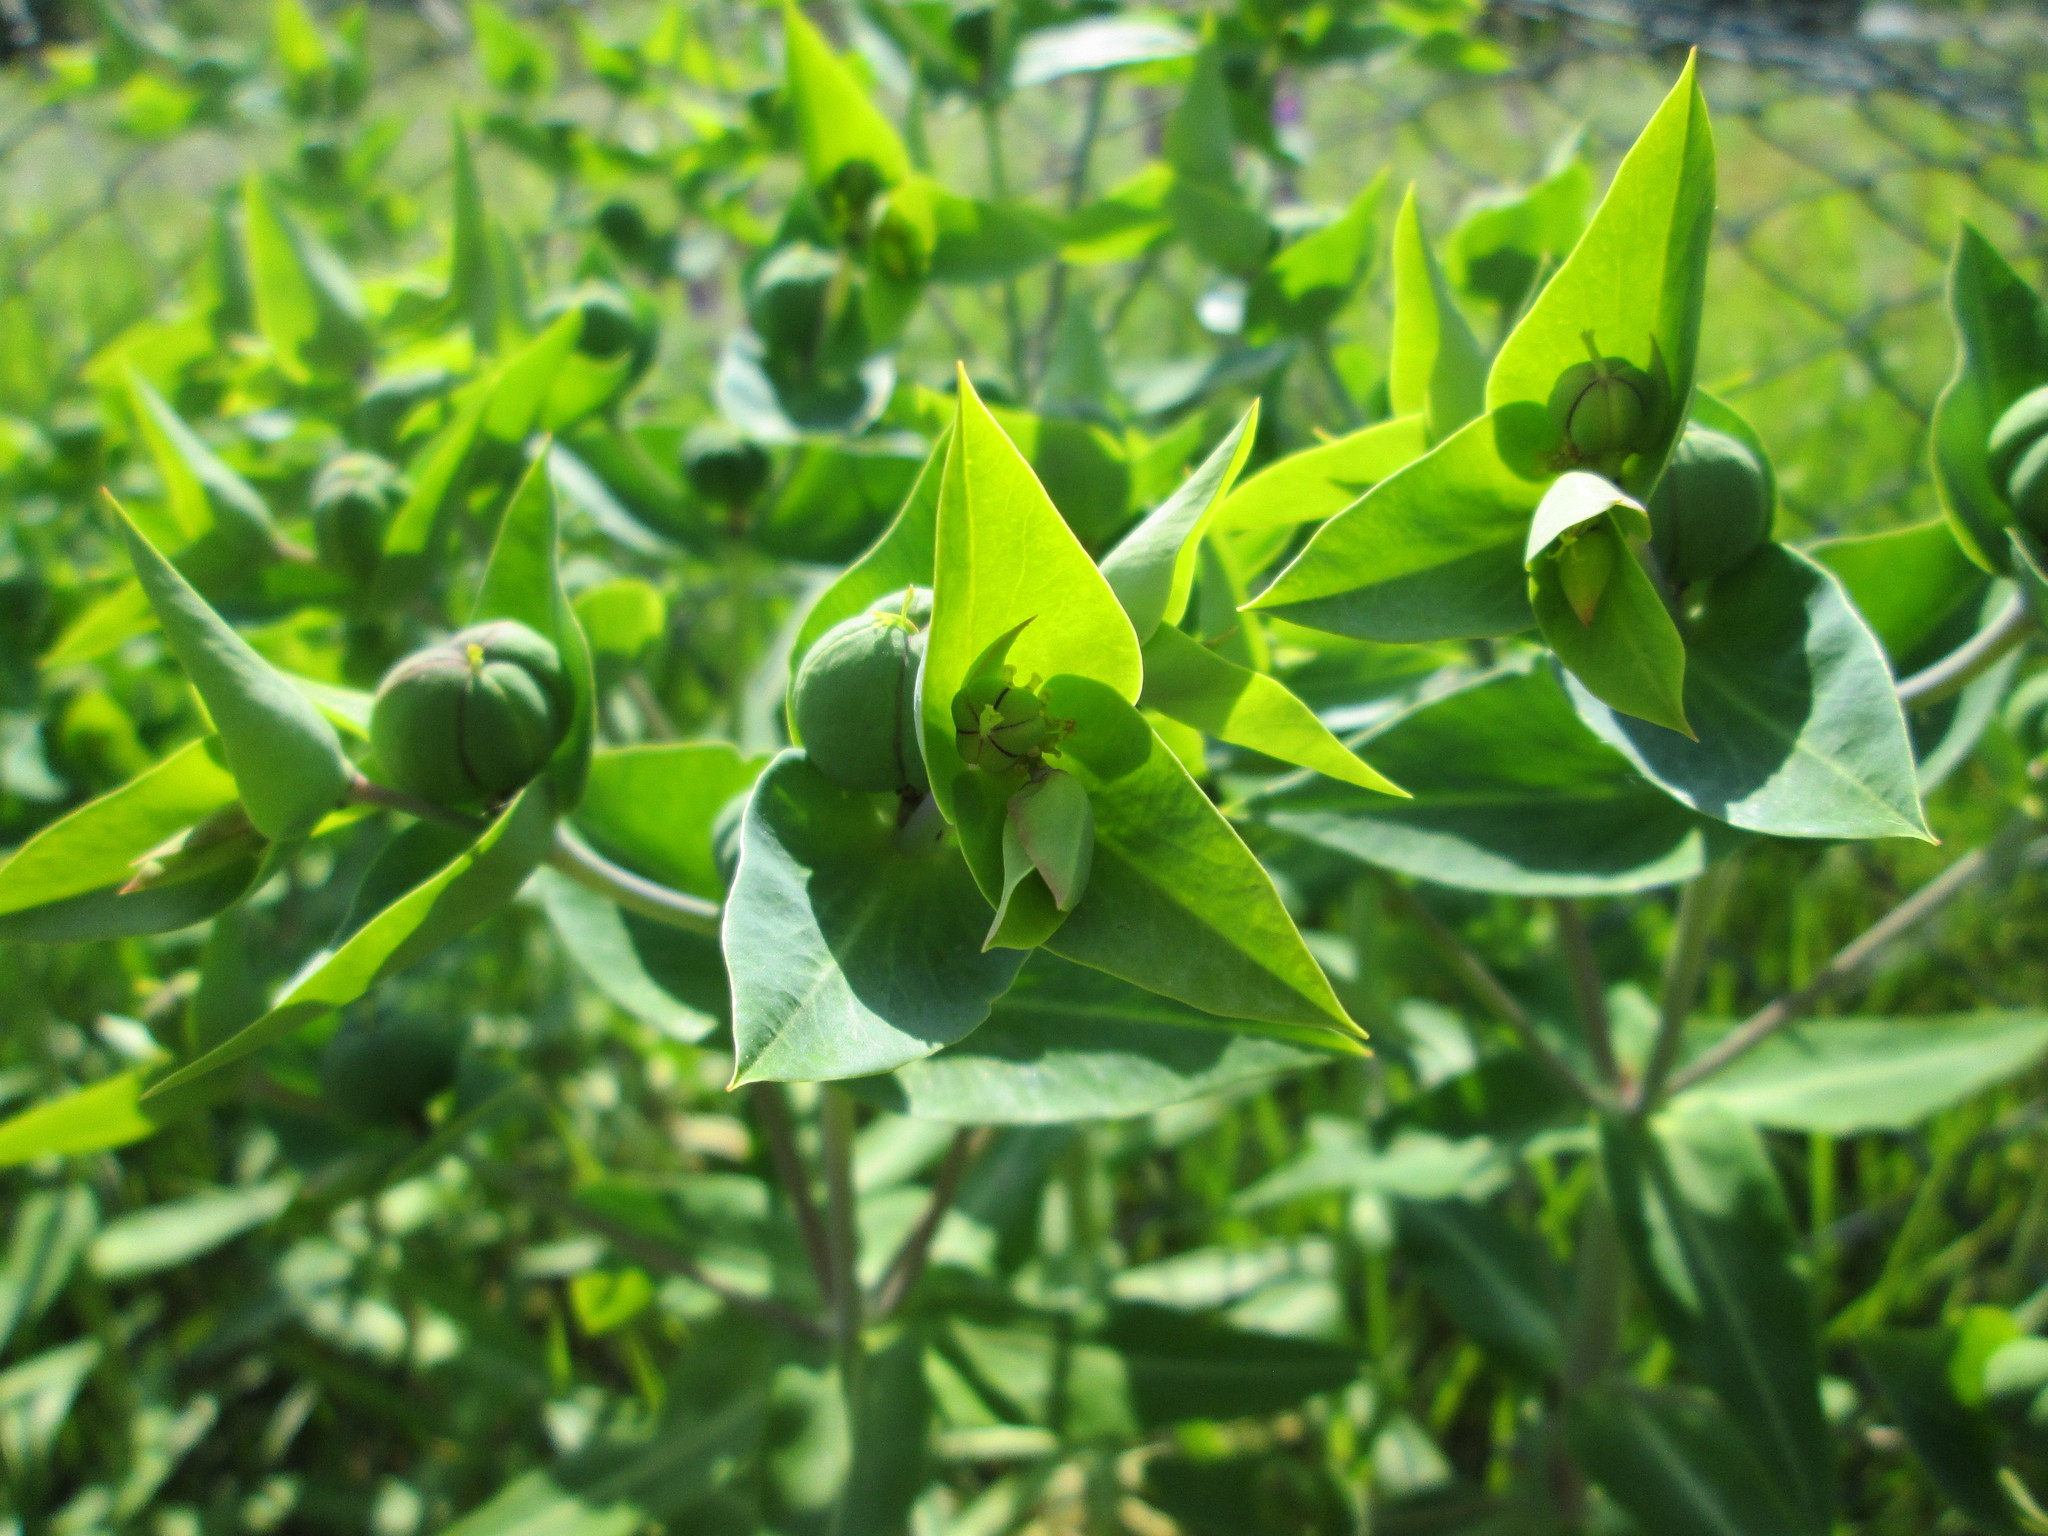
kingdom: Plantae
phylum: Tracheophyta
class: Magnoliopsida
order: Malpighiales
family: Euphorbiaceae
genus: Euphorbia
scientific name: Euphorbia lathyris
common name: Caper spurge
